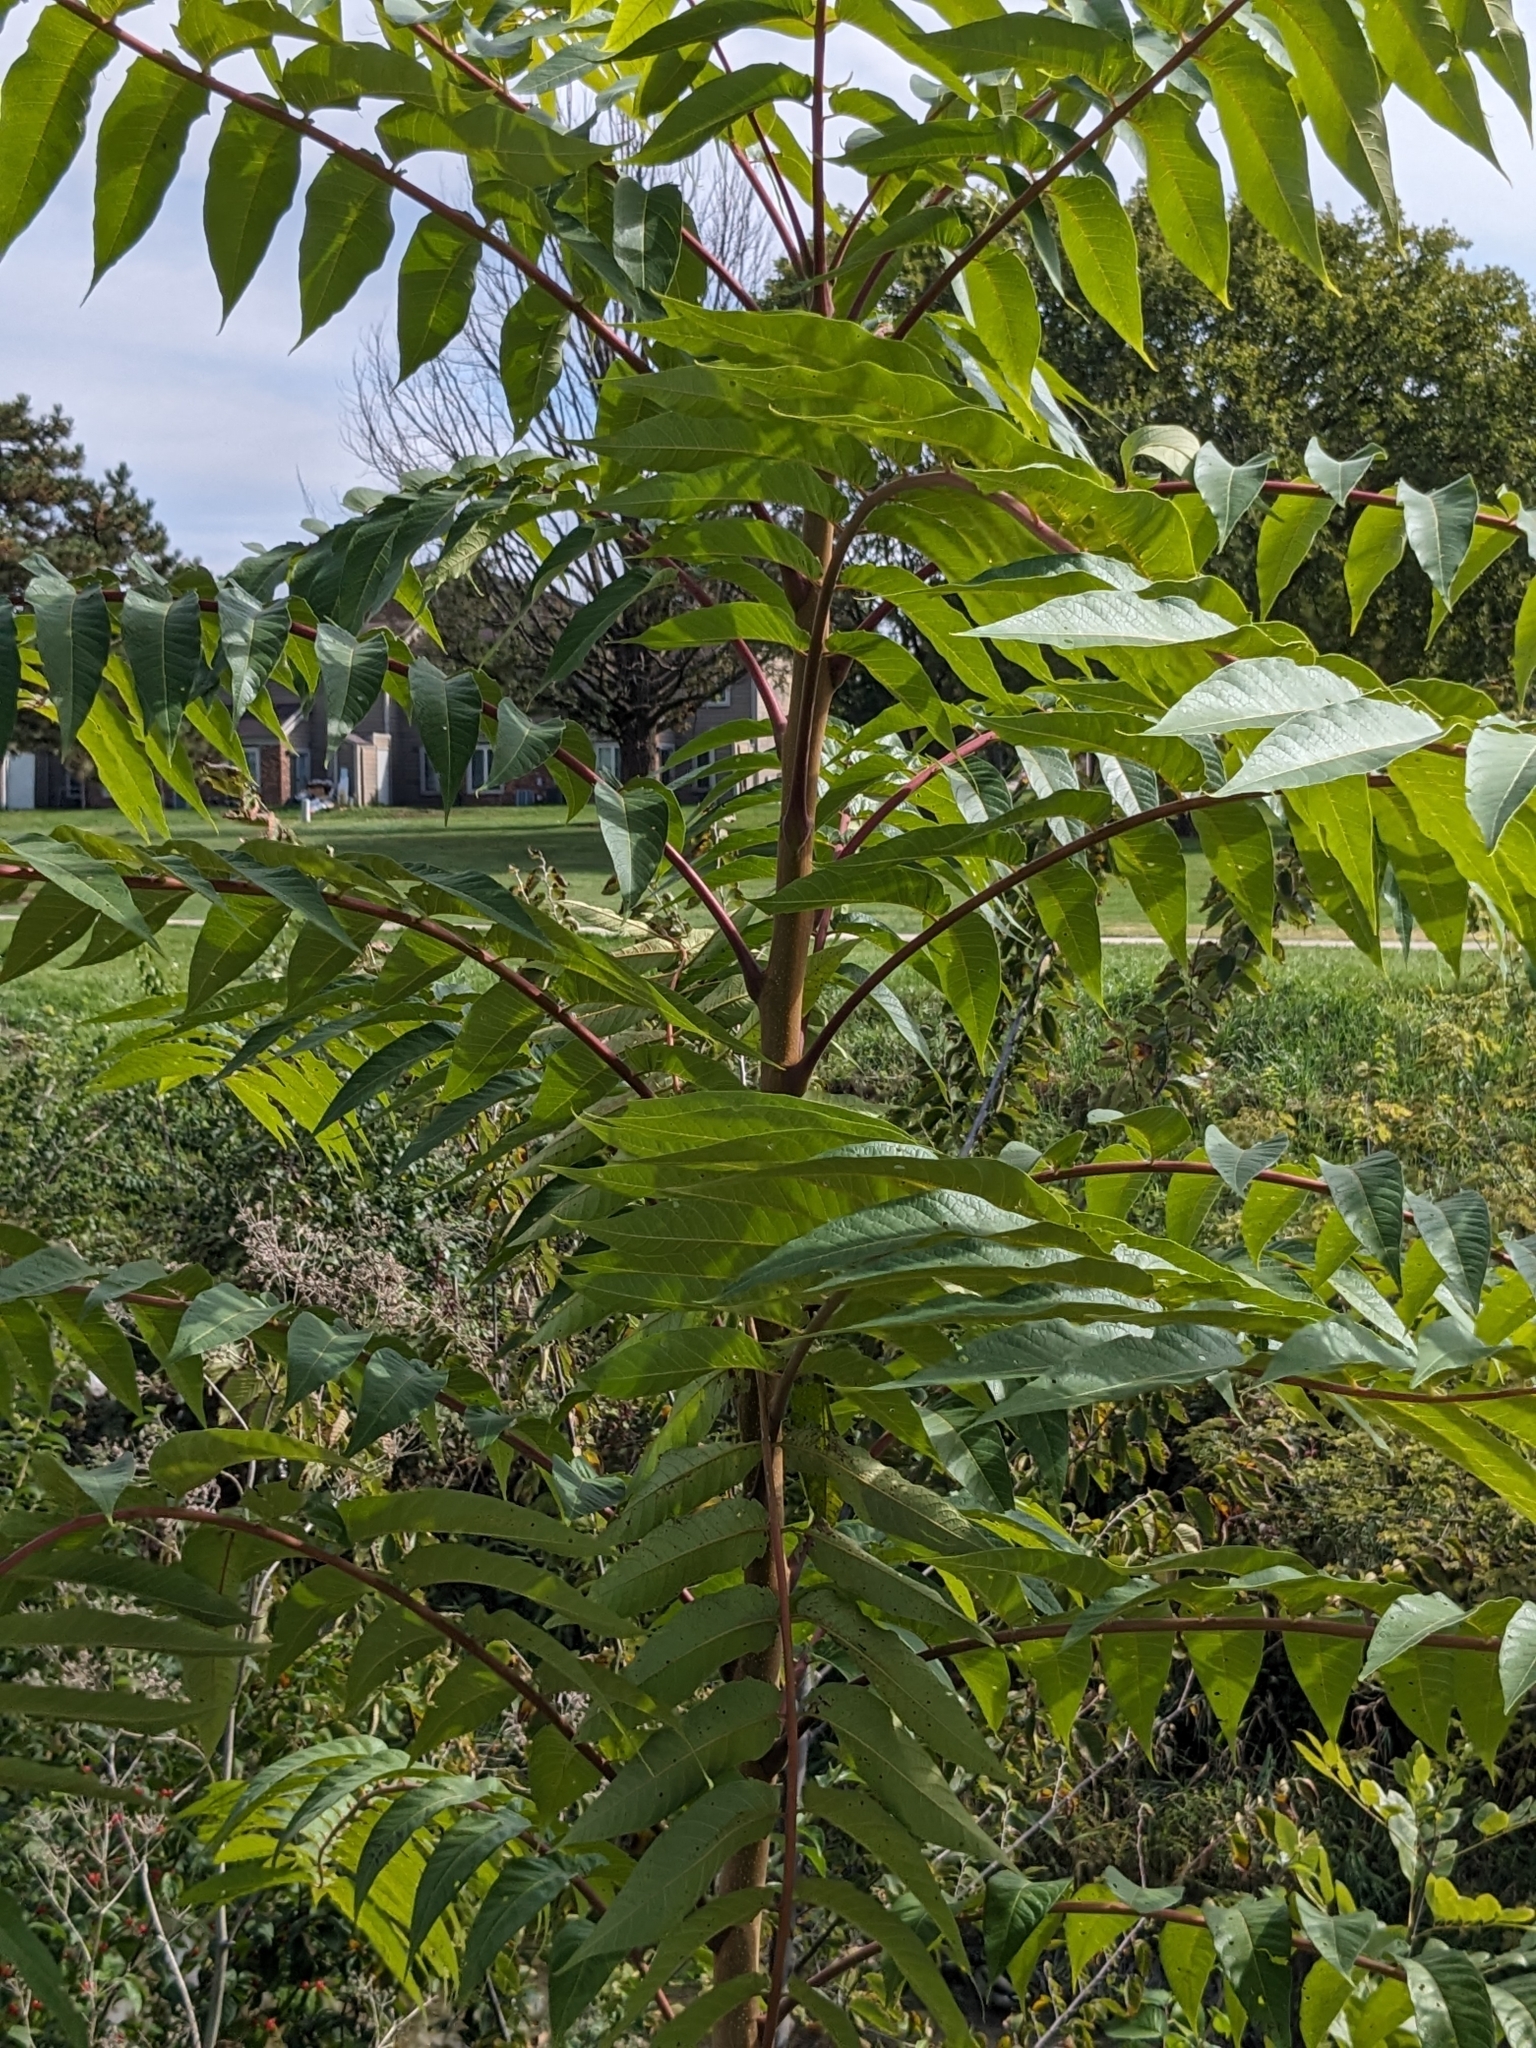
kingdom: Plantae
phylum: Tracheophyta
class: Magnoliopsida
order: Sapindales
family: Simaroubaceae
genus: Ailanthus
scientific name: Ailanthus altissima
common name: Tree-of-heaven
